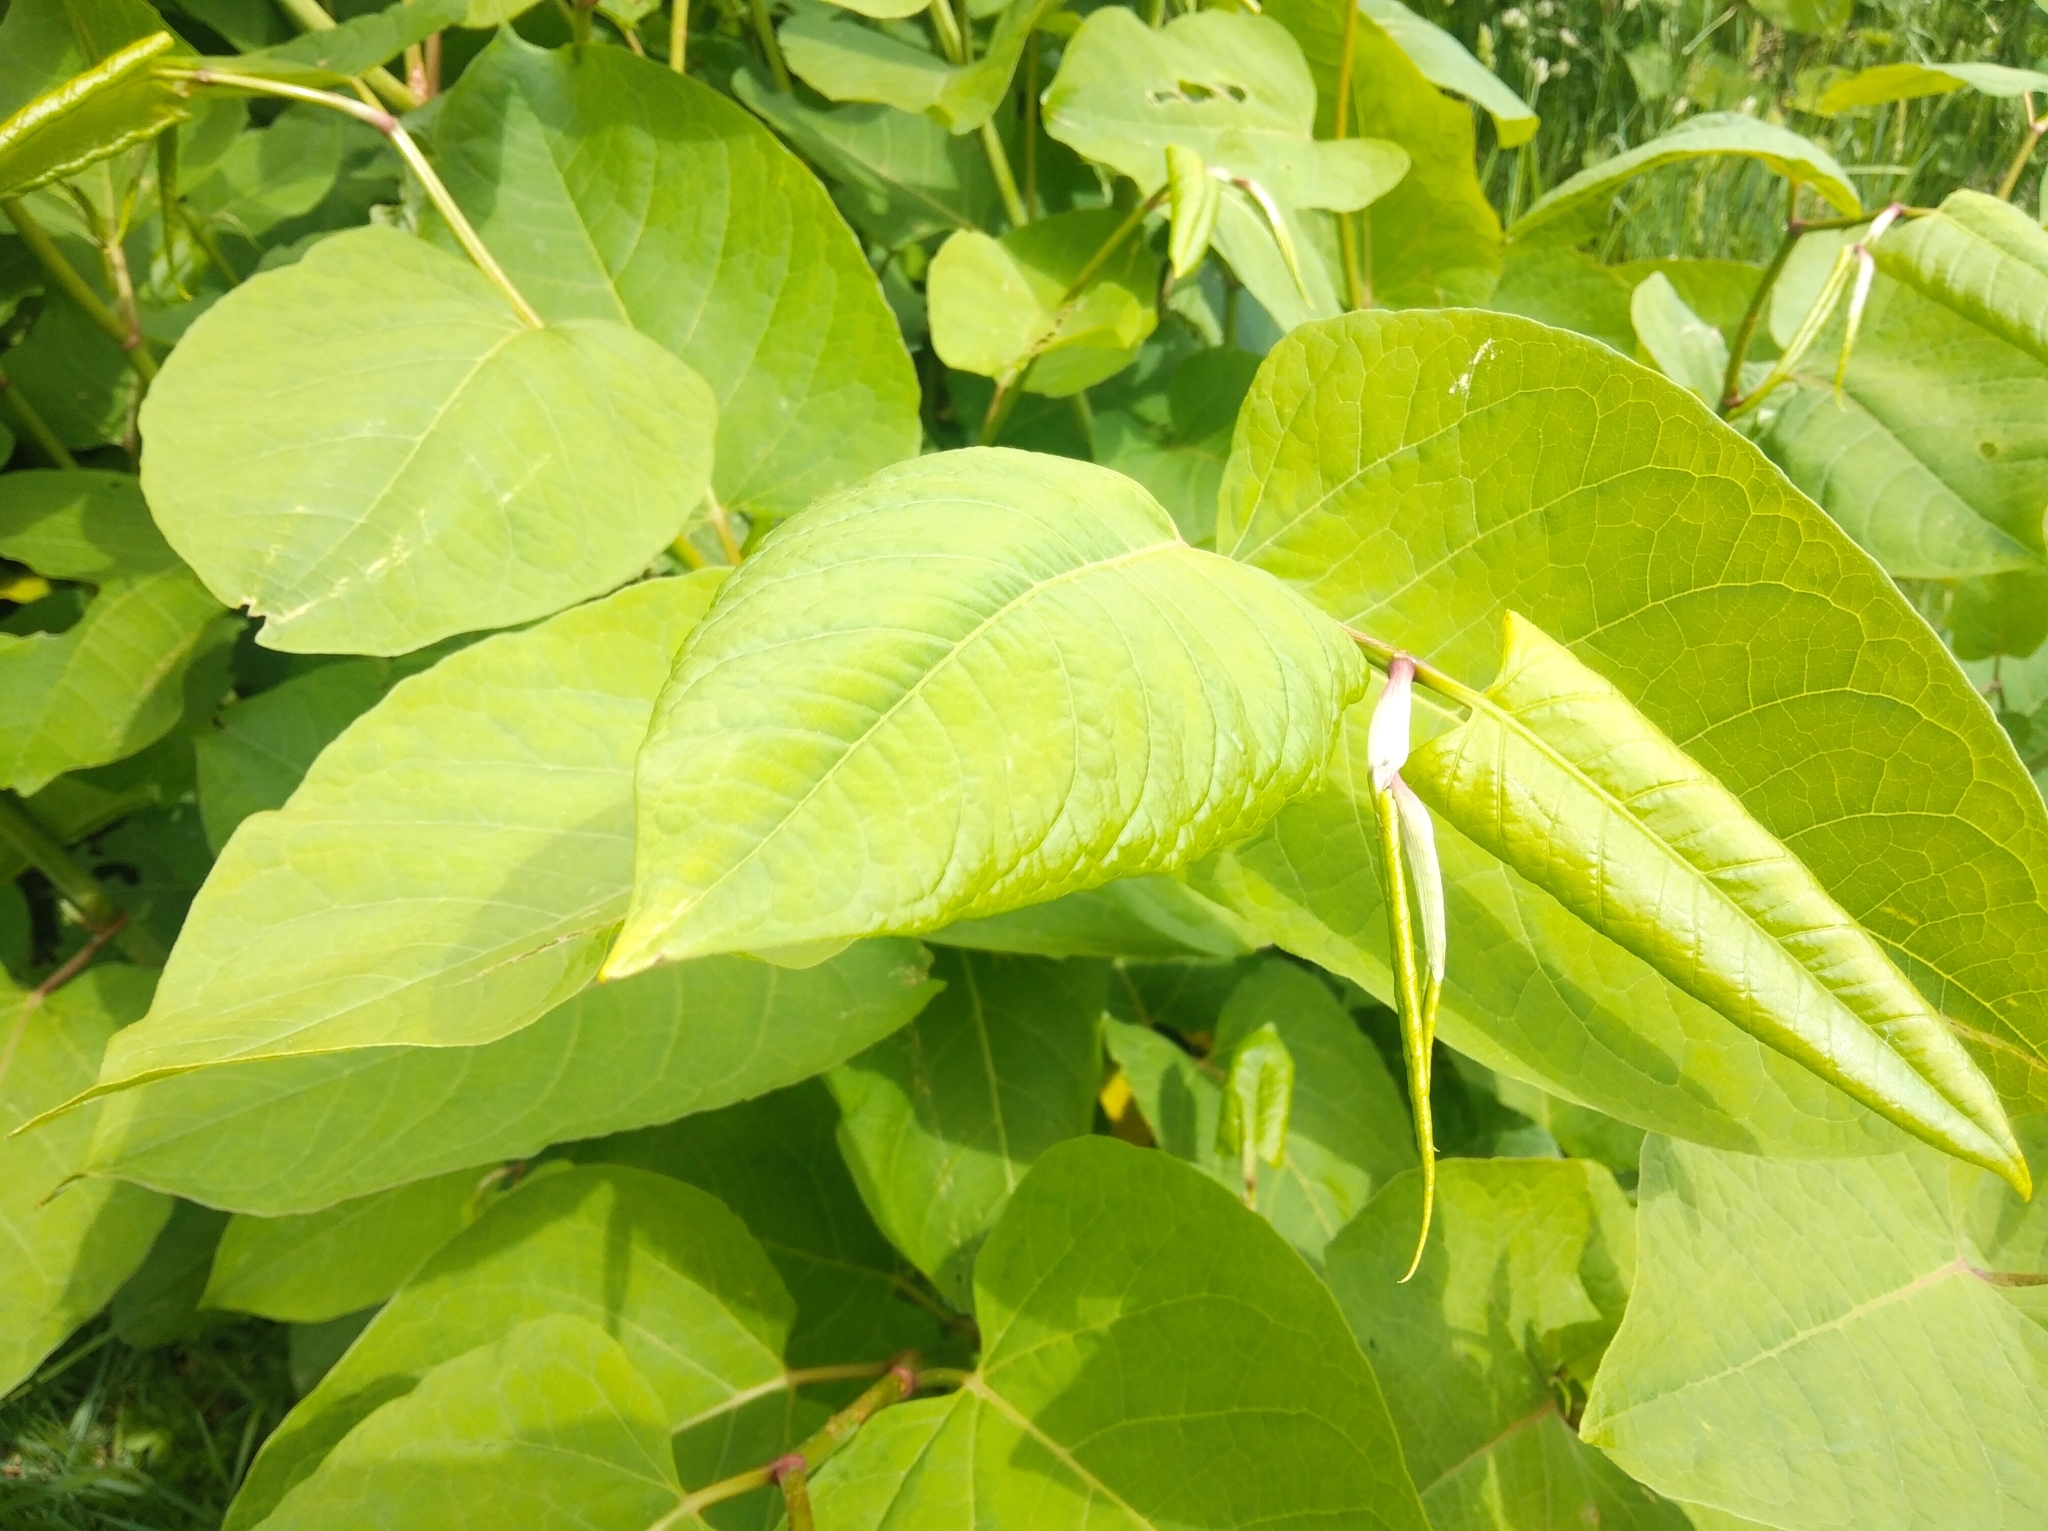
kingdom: Plantae
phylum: Tracheophyta
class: Magnoliopsida
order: Caryophyllales
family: Polygonaceae
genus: Reynoutria
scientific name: Reynoutria japonica
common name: Japanese knotweed
